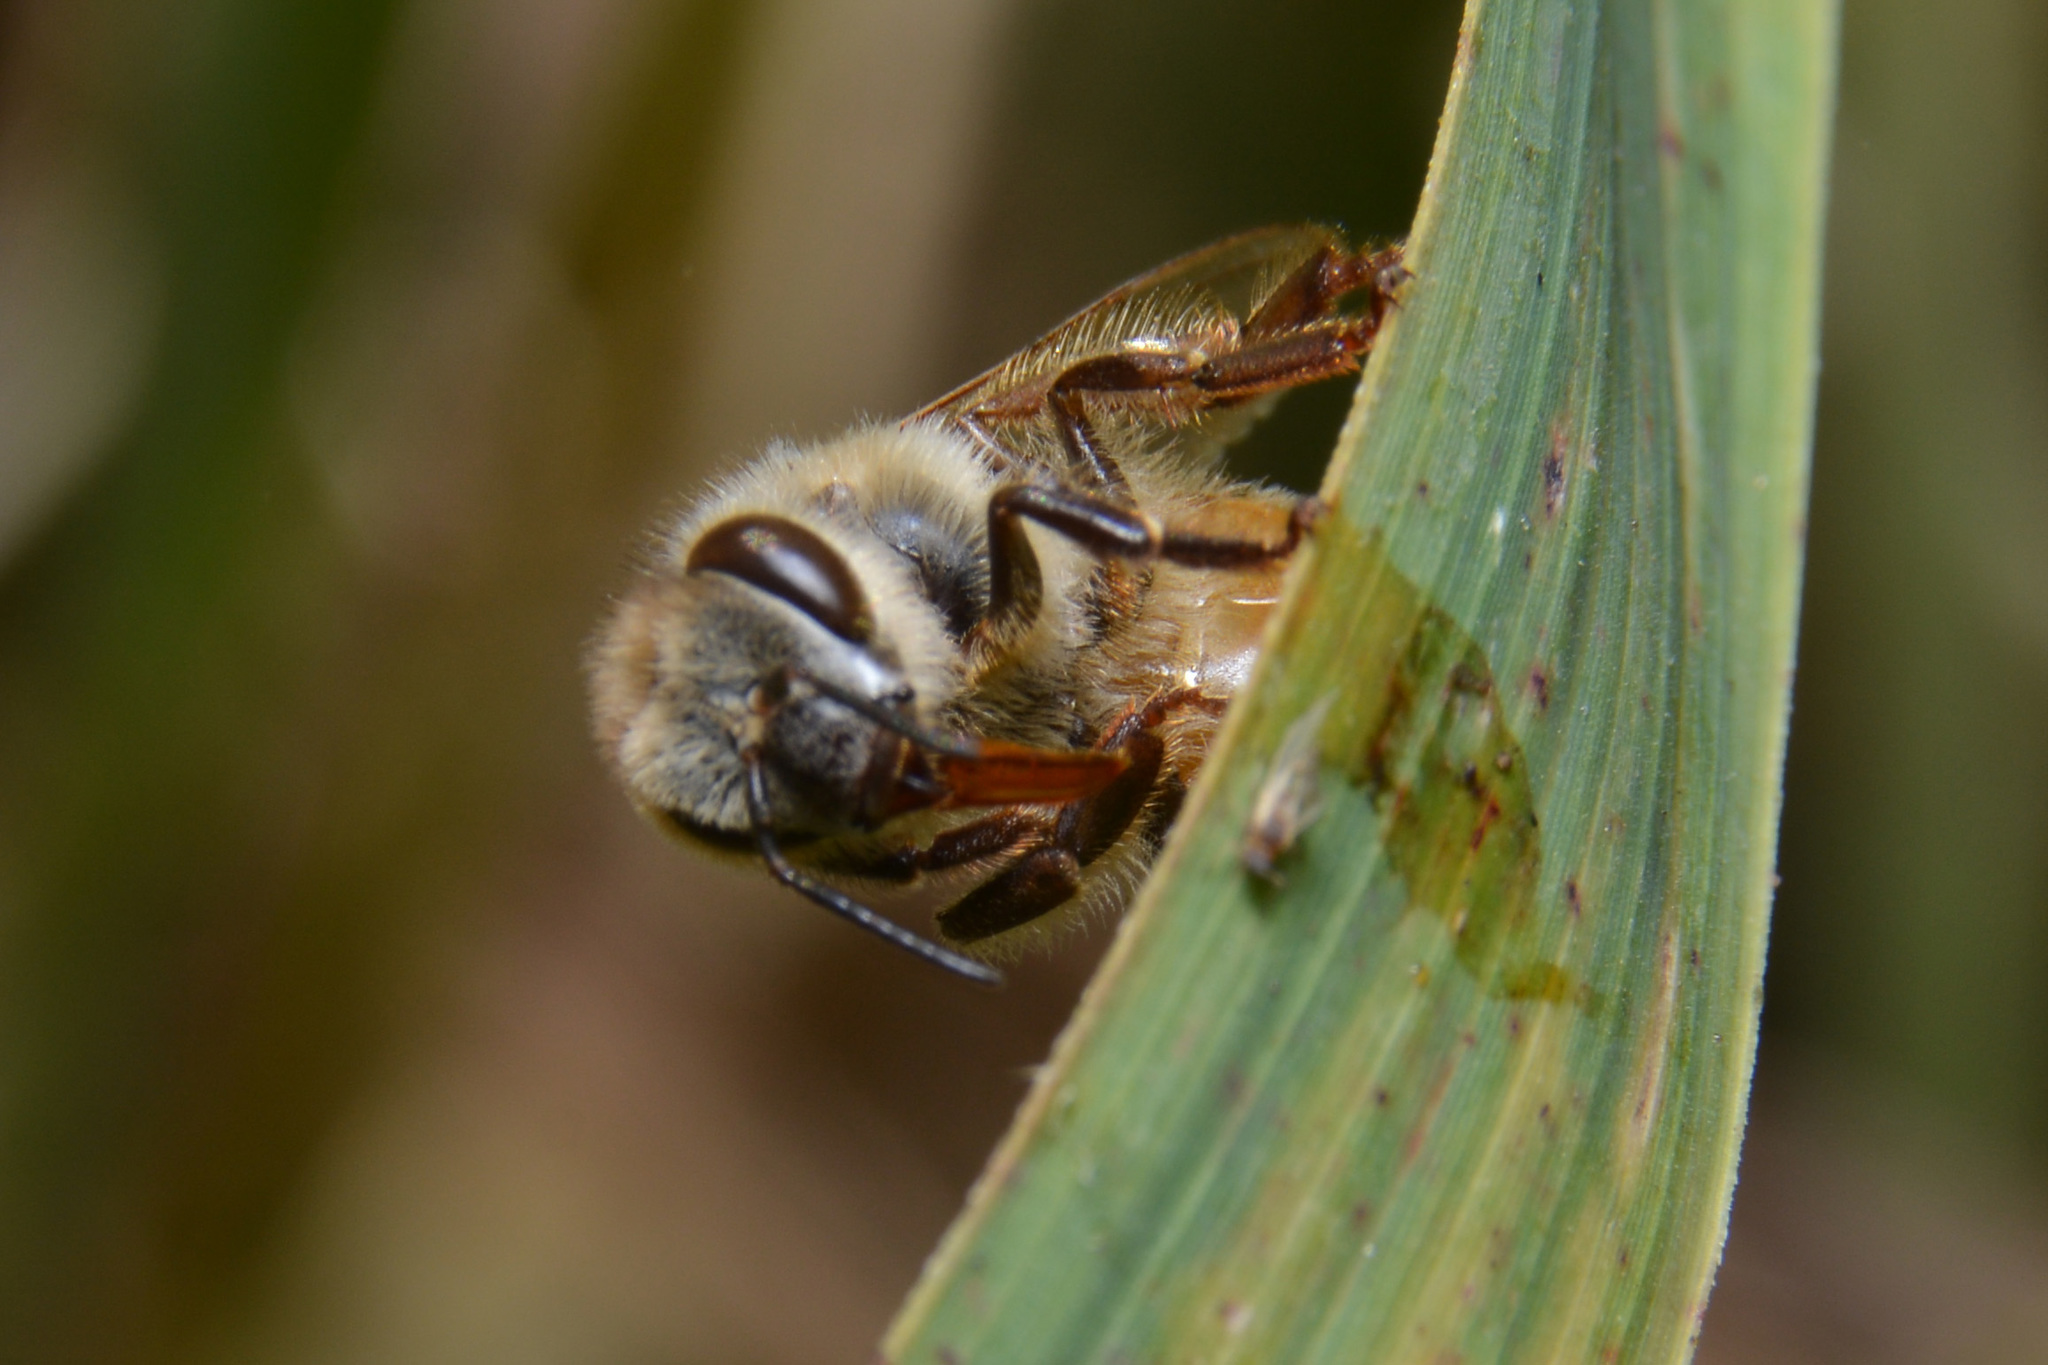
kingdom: Animalia
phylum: Arthropoda
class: Insecta
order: Hymenoptera
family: Apidae
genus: Apis
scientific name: Apis mellifera
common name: Honey bee
